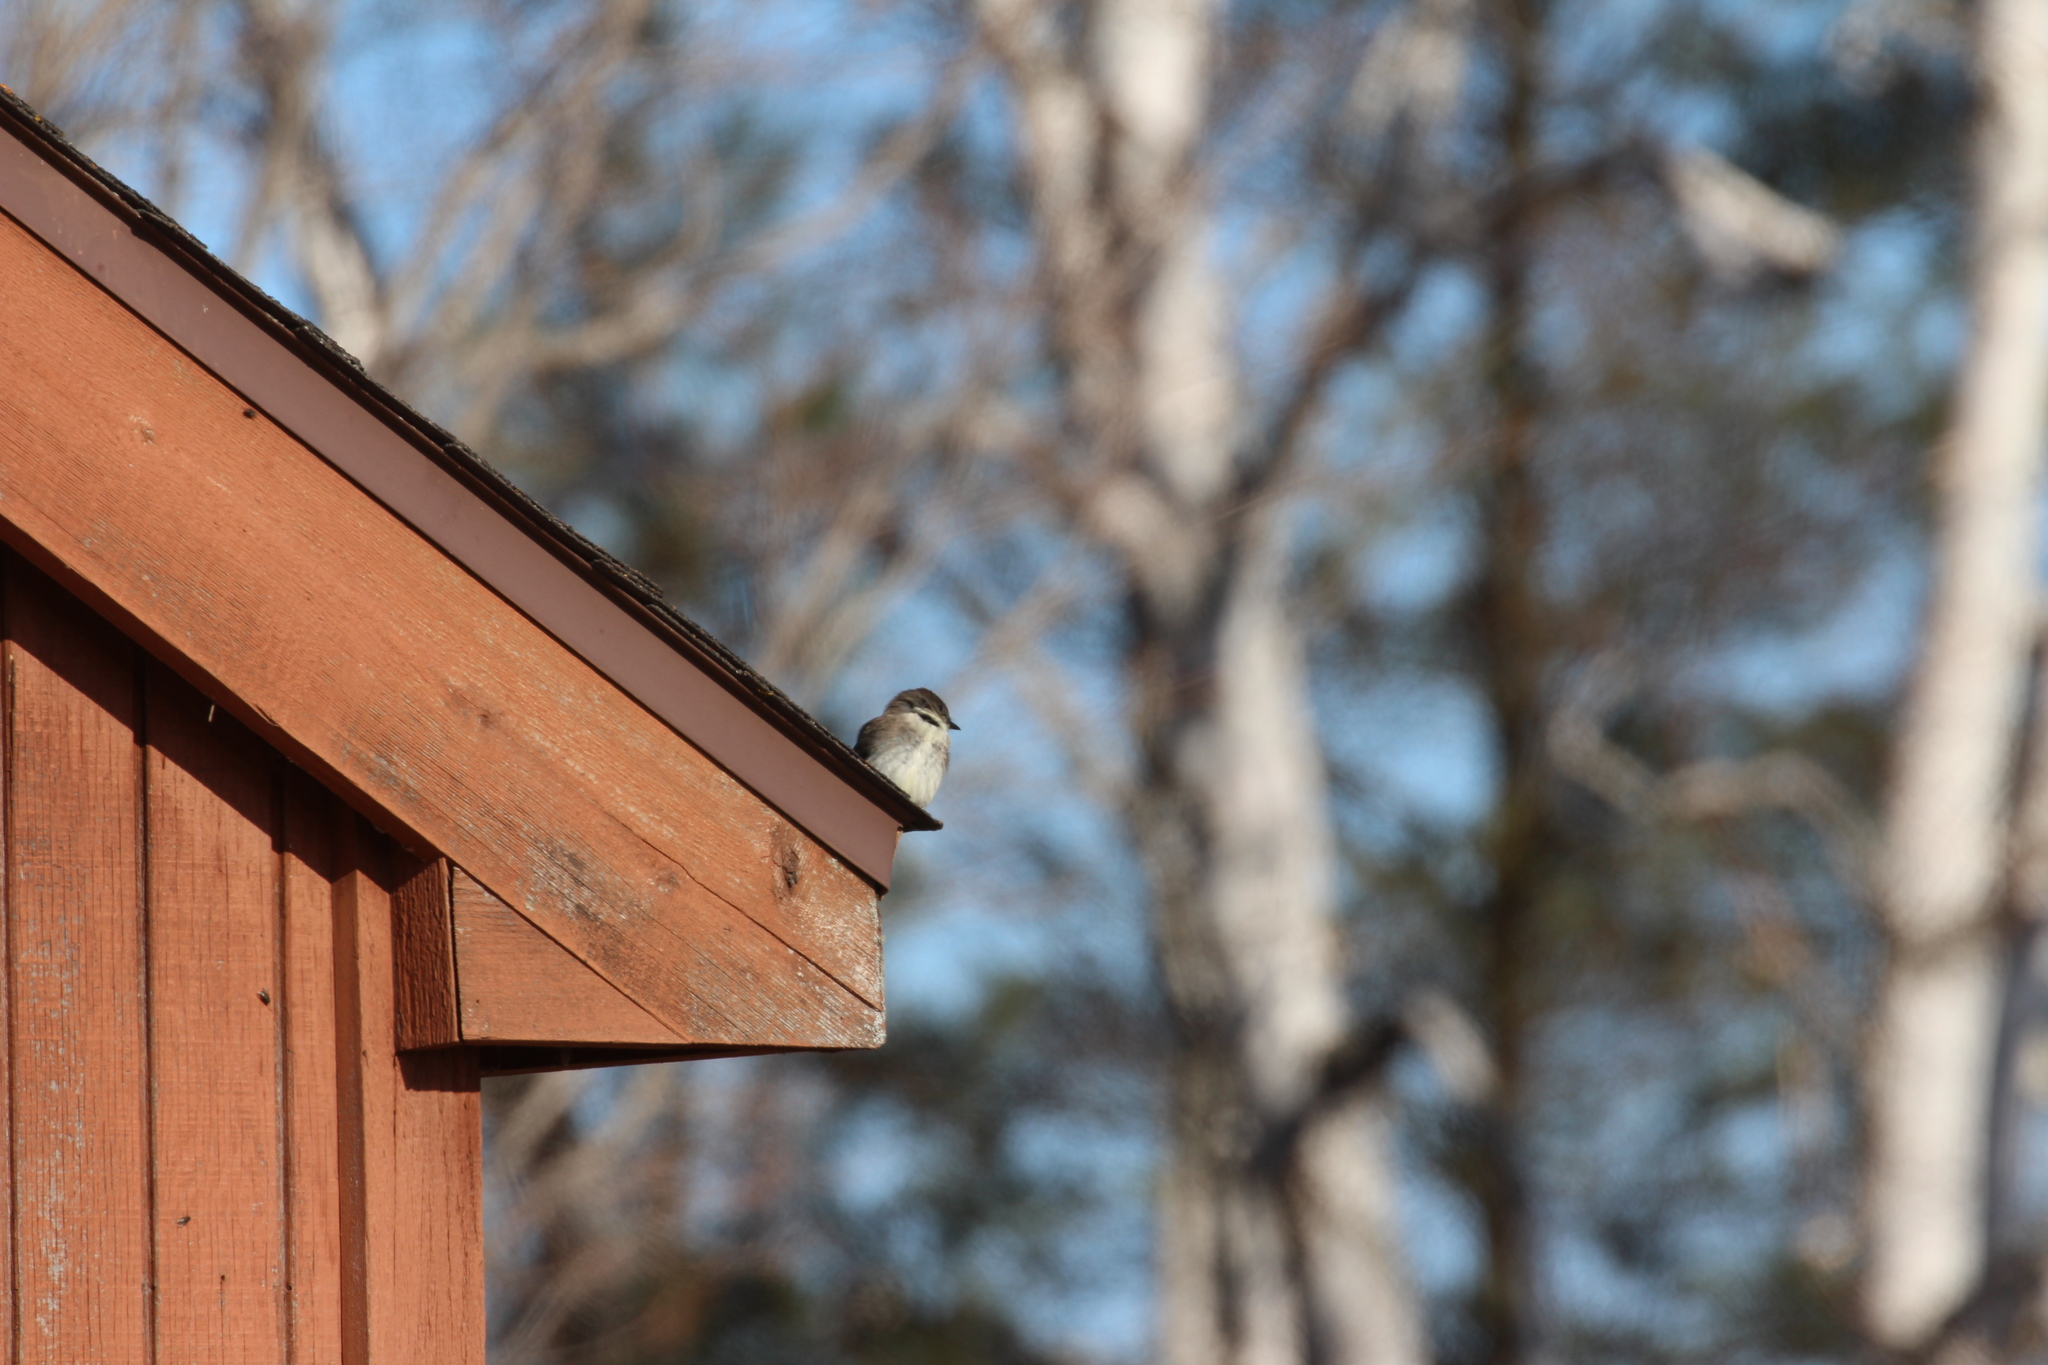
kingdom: Animalia
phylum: Chordata
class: Aves
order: Passeriformes
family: Tyrannidae
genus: Sayornis
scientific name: Sayornis phoebe
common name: Eastern phoebe
